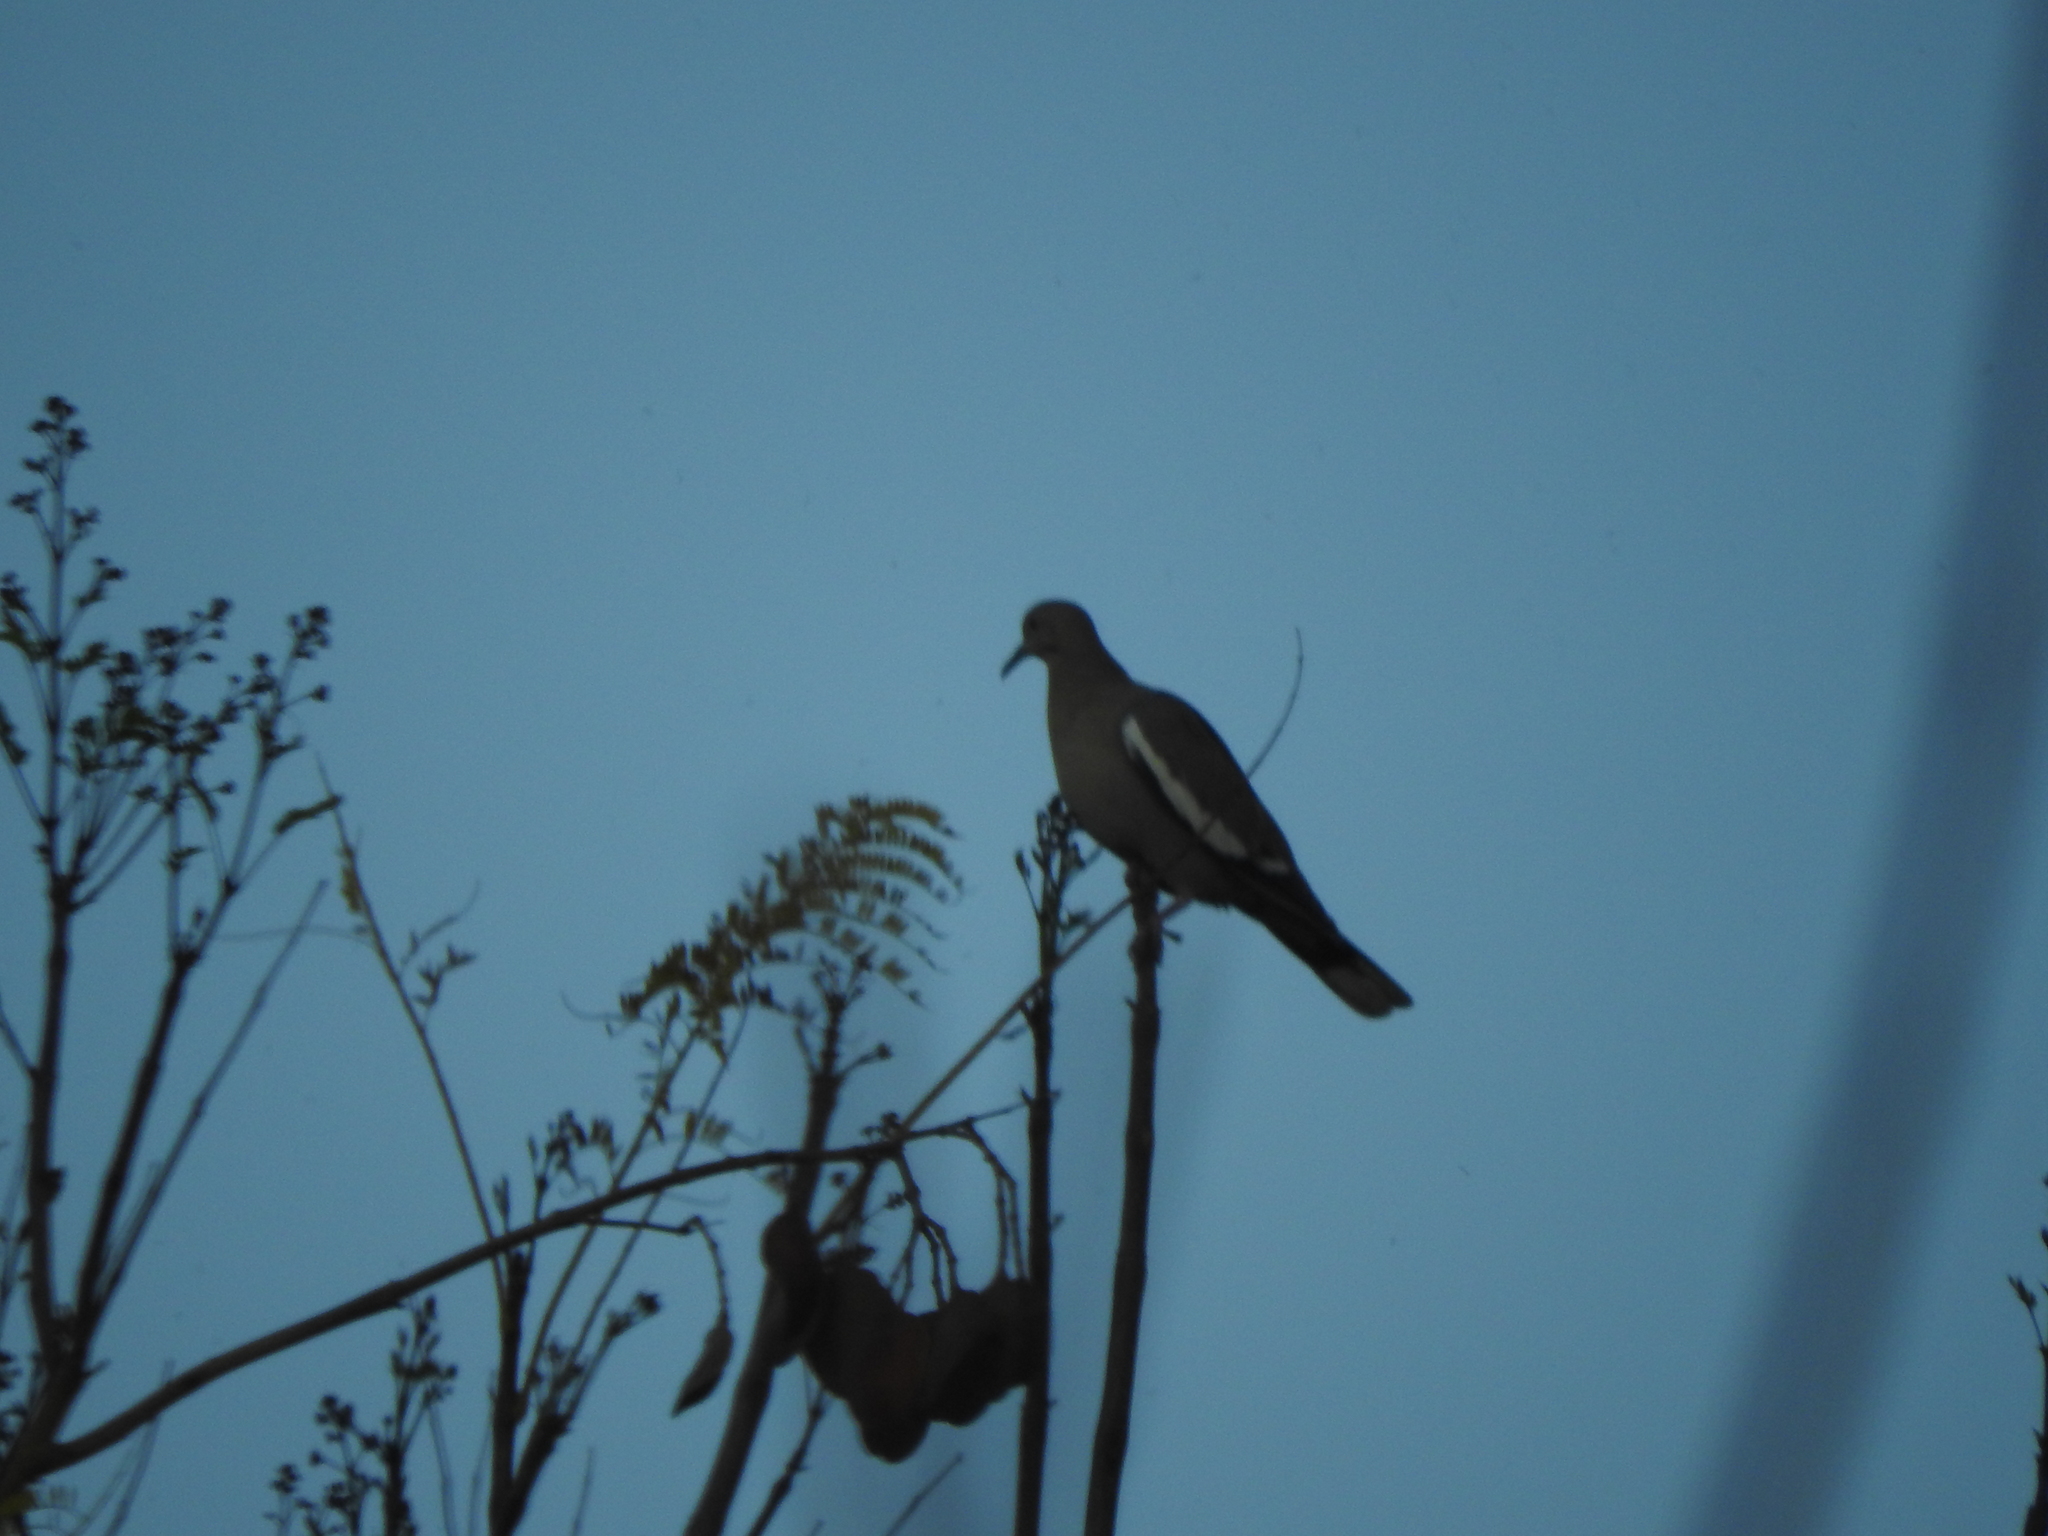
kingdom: Animalia
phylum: Chordata
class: Aves
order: Columbiformes
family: Columbidae
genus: Zenaida
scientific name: Zenaida asiatica
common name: White-winged dove
